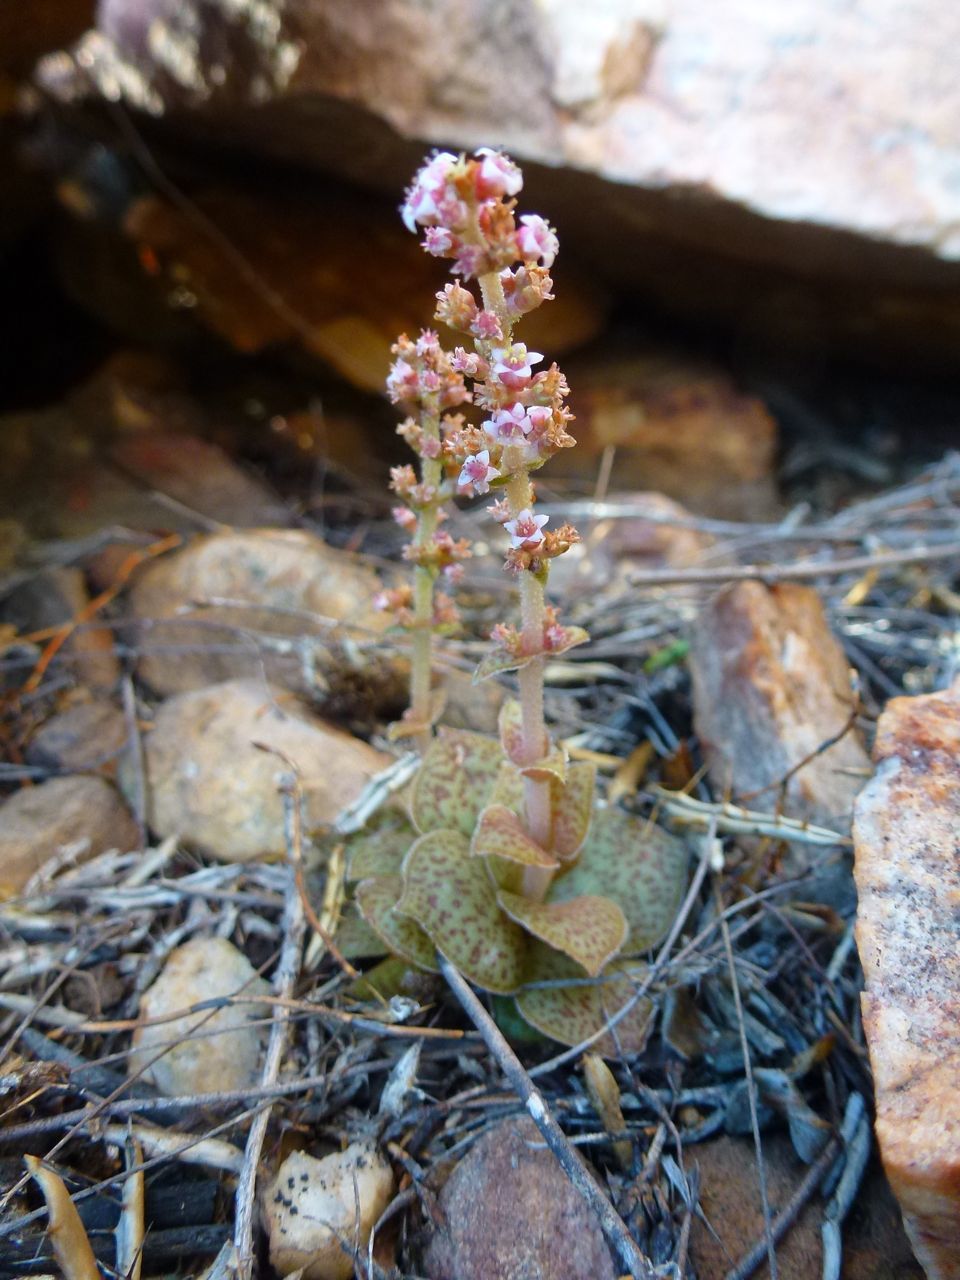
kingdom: Plantae
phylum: Tracheophyta
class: Magnoliopsida
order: Saxifragales
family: Crassulaceae
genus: Crassula
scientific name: Crassula capitella
